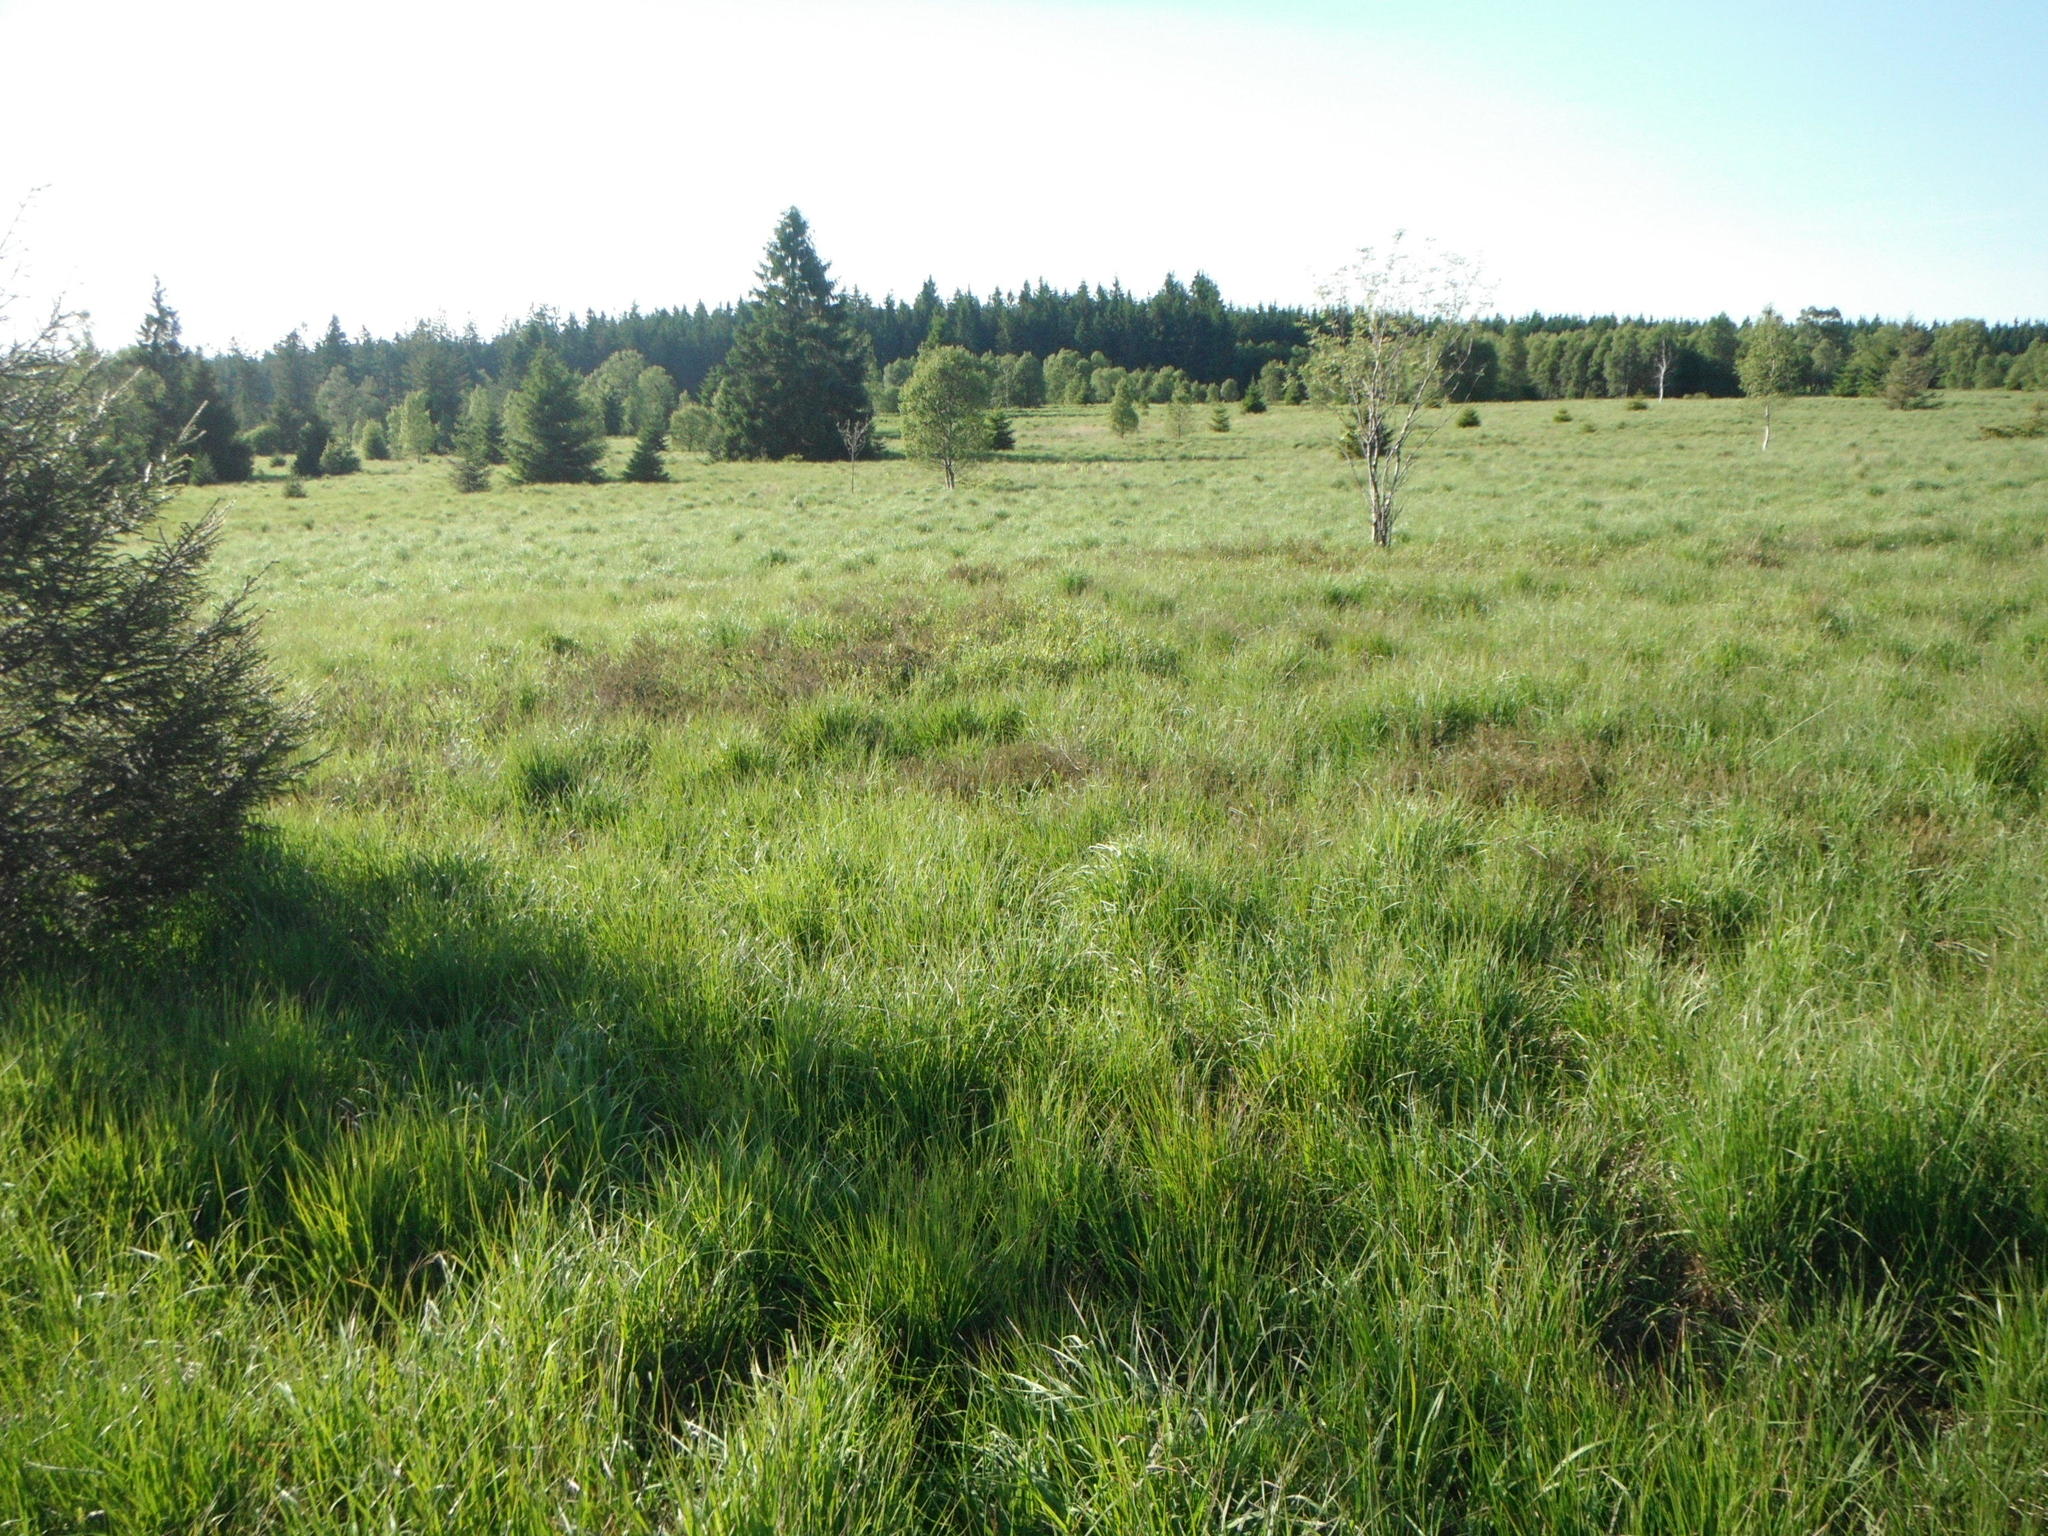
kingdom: Plantae
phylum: Tracheophyta
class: Magnoliopsida
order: Ericales
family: Ericaceae
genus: Calluna
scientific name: Calluna vulgaris
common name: Heather
